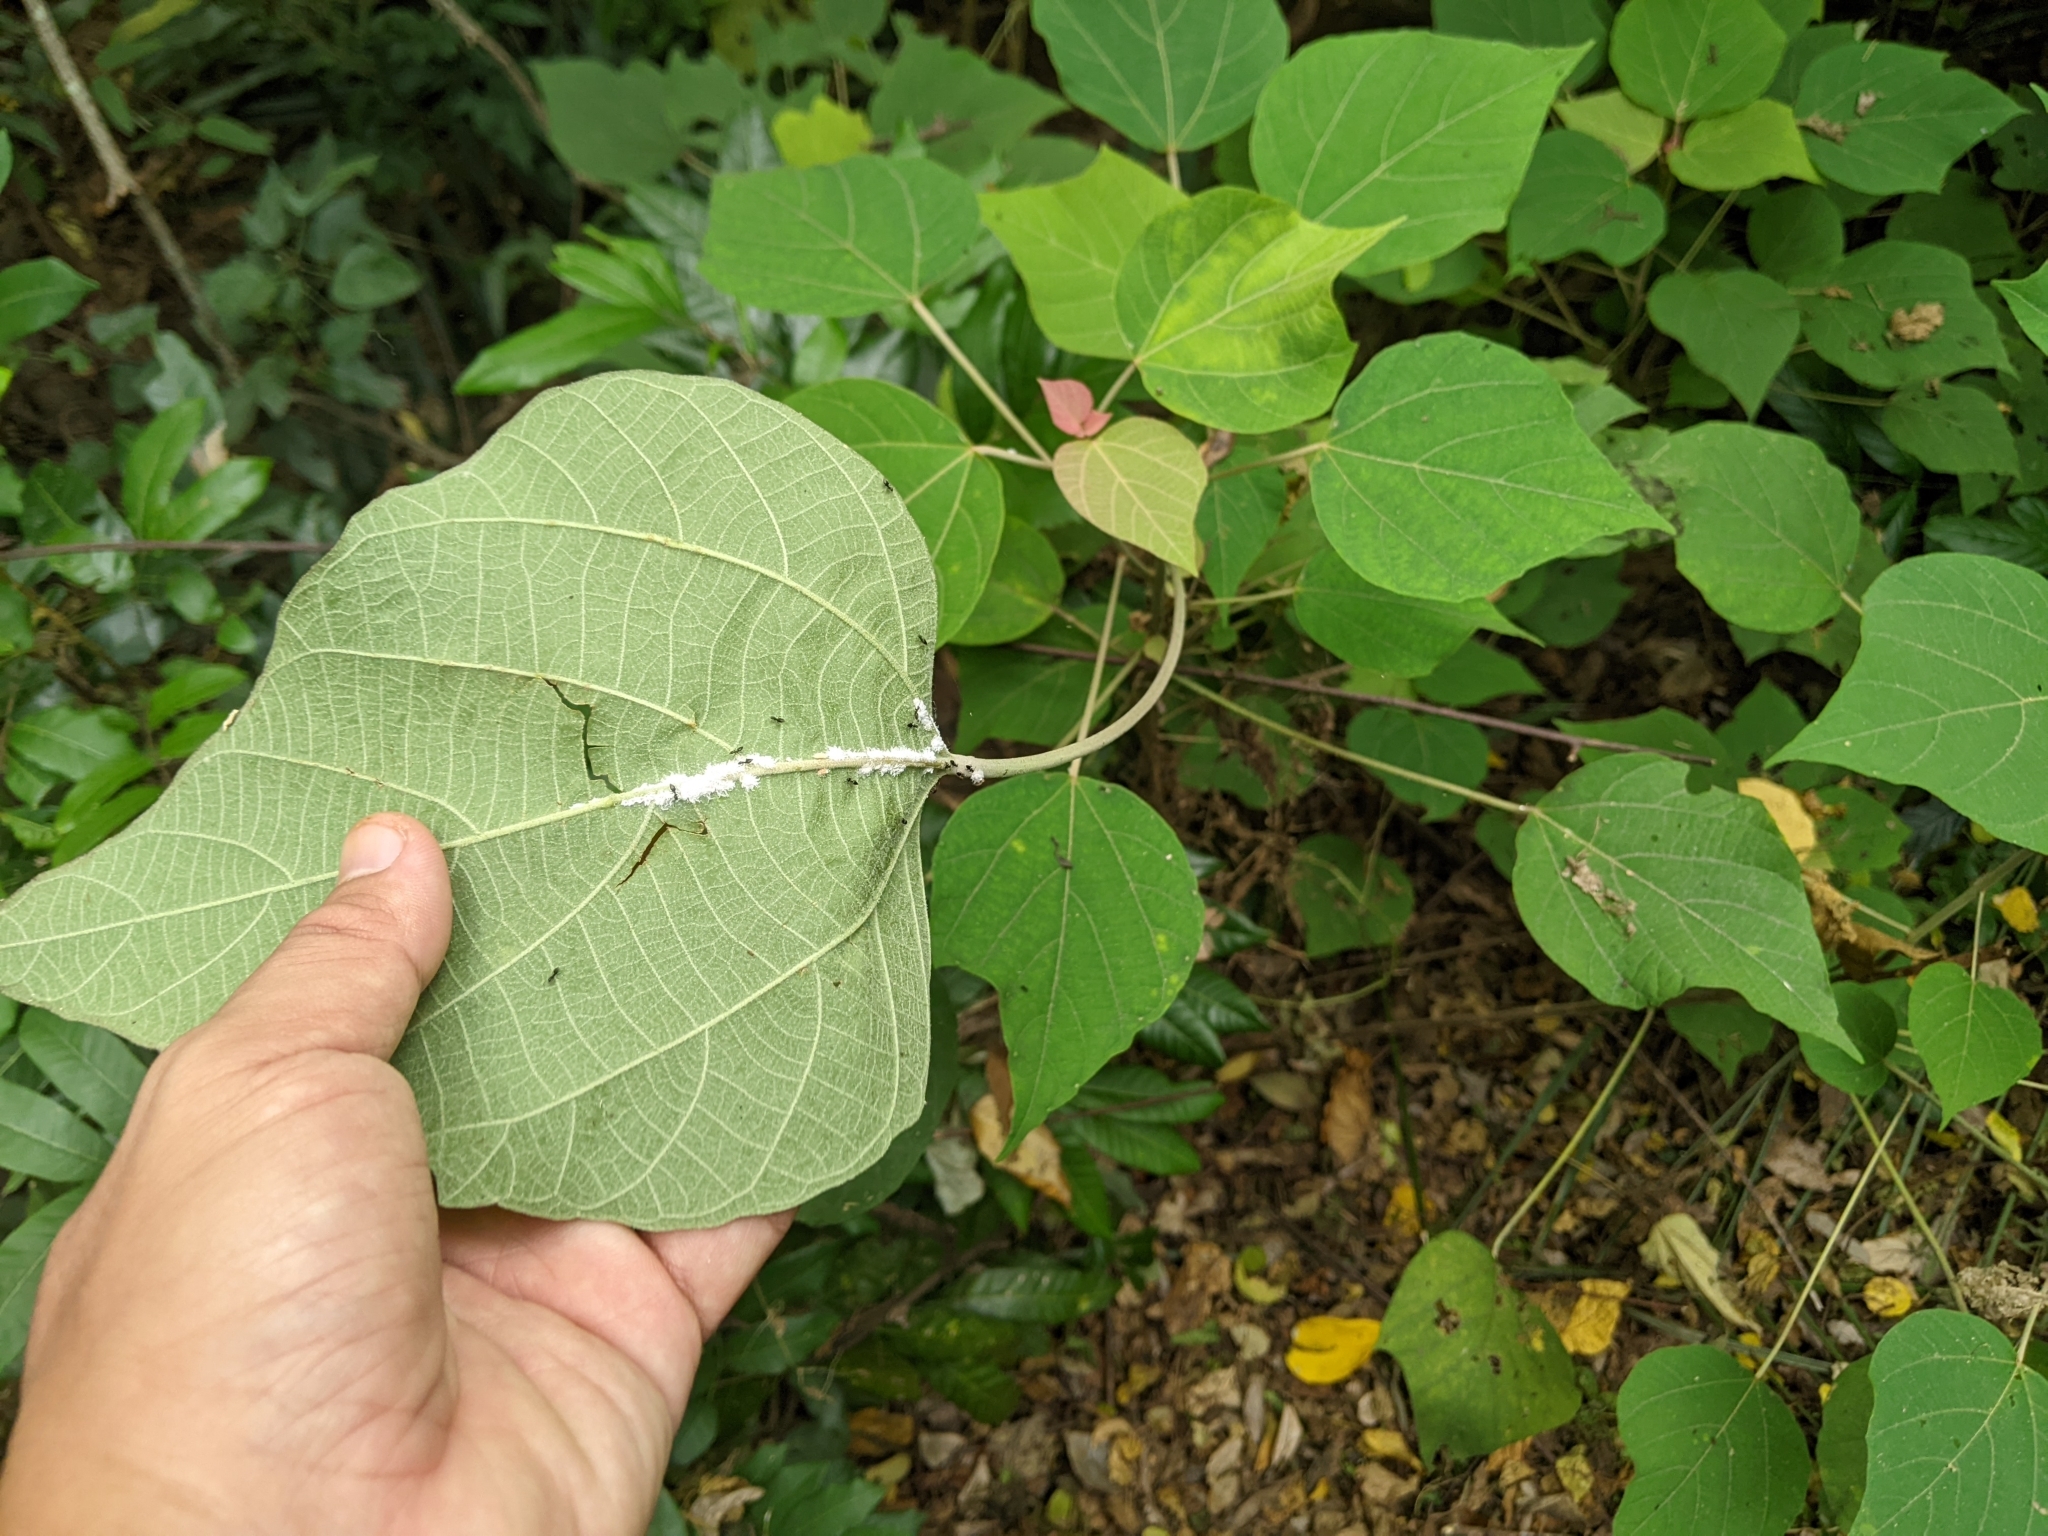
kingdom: Plantae
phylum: Tracheophyta
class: Magnoliopsida
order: Malpighiales
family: Euphorbiaceae
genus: Mallotus
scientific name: Mallotus japonicus
